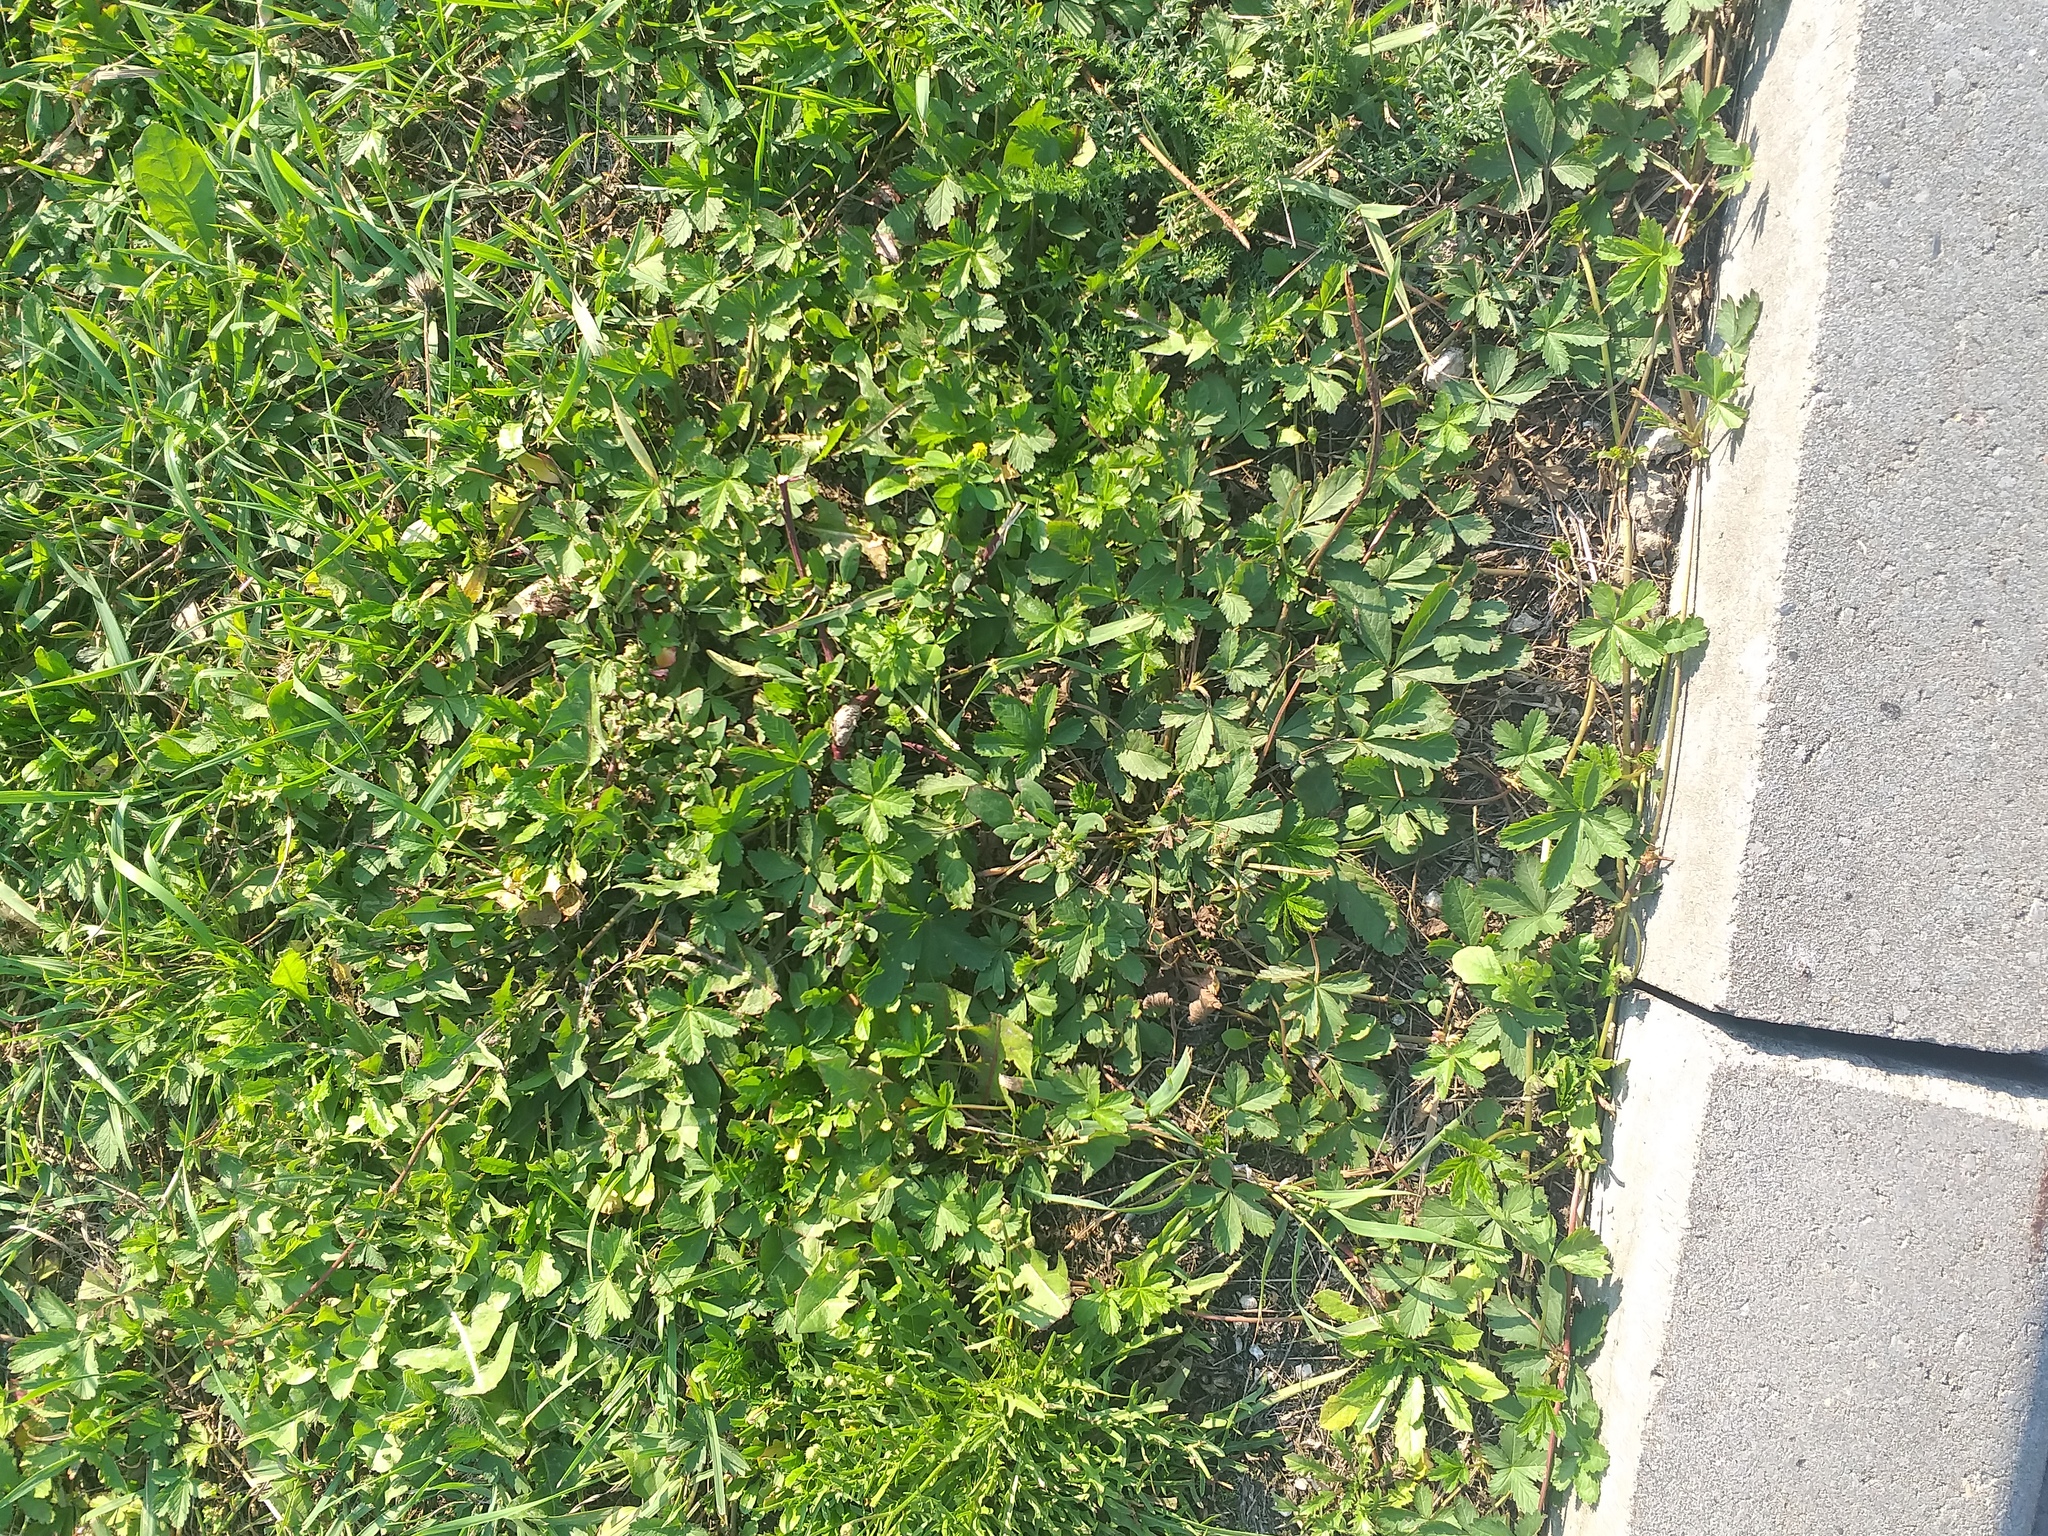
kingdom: Plantae
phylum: Tracheophyta
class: Magnoliopsida
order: Rosales
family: Rosaceae
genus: Potentilla
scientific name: Potentilla reptans
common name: Creeping cinquefoil
